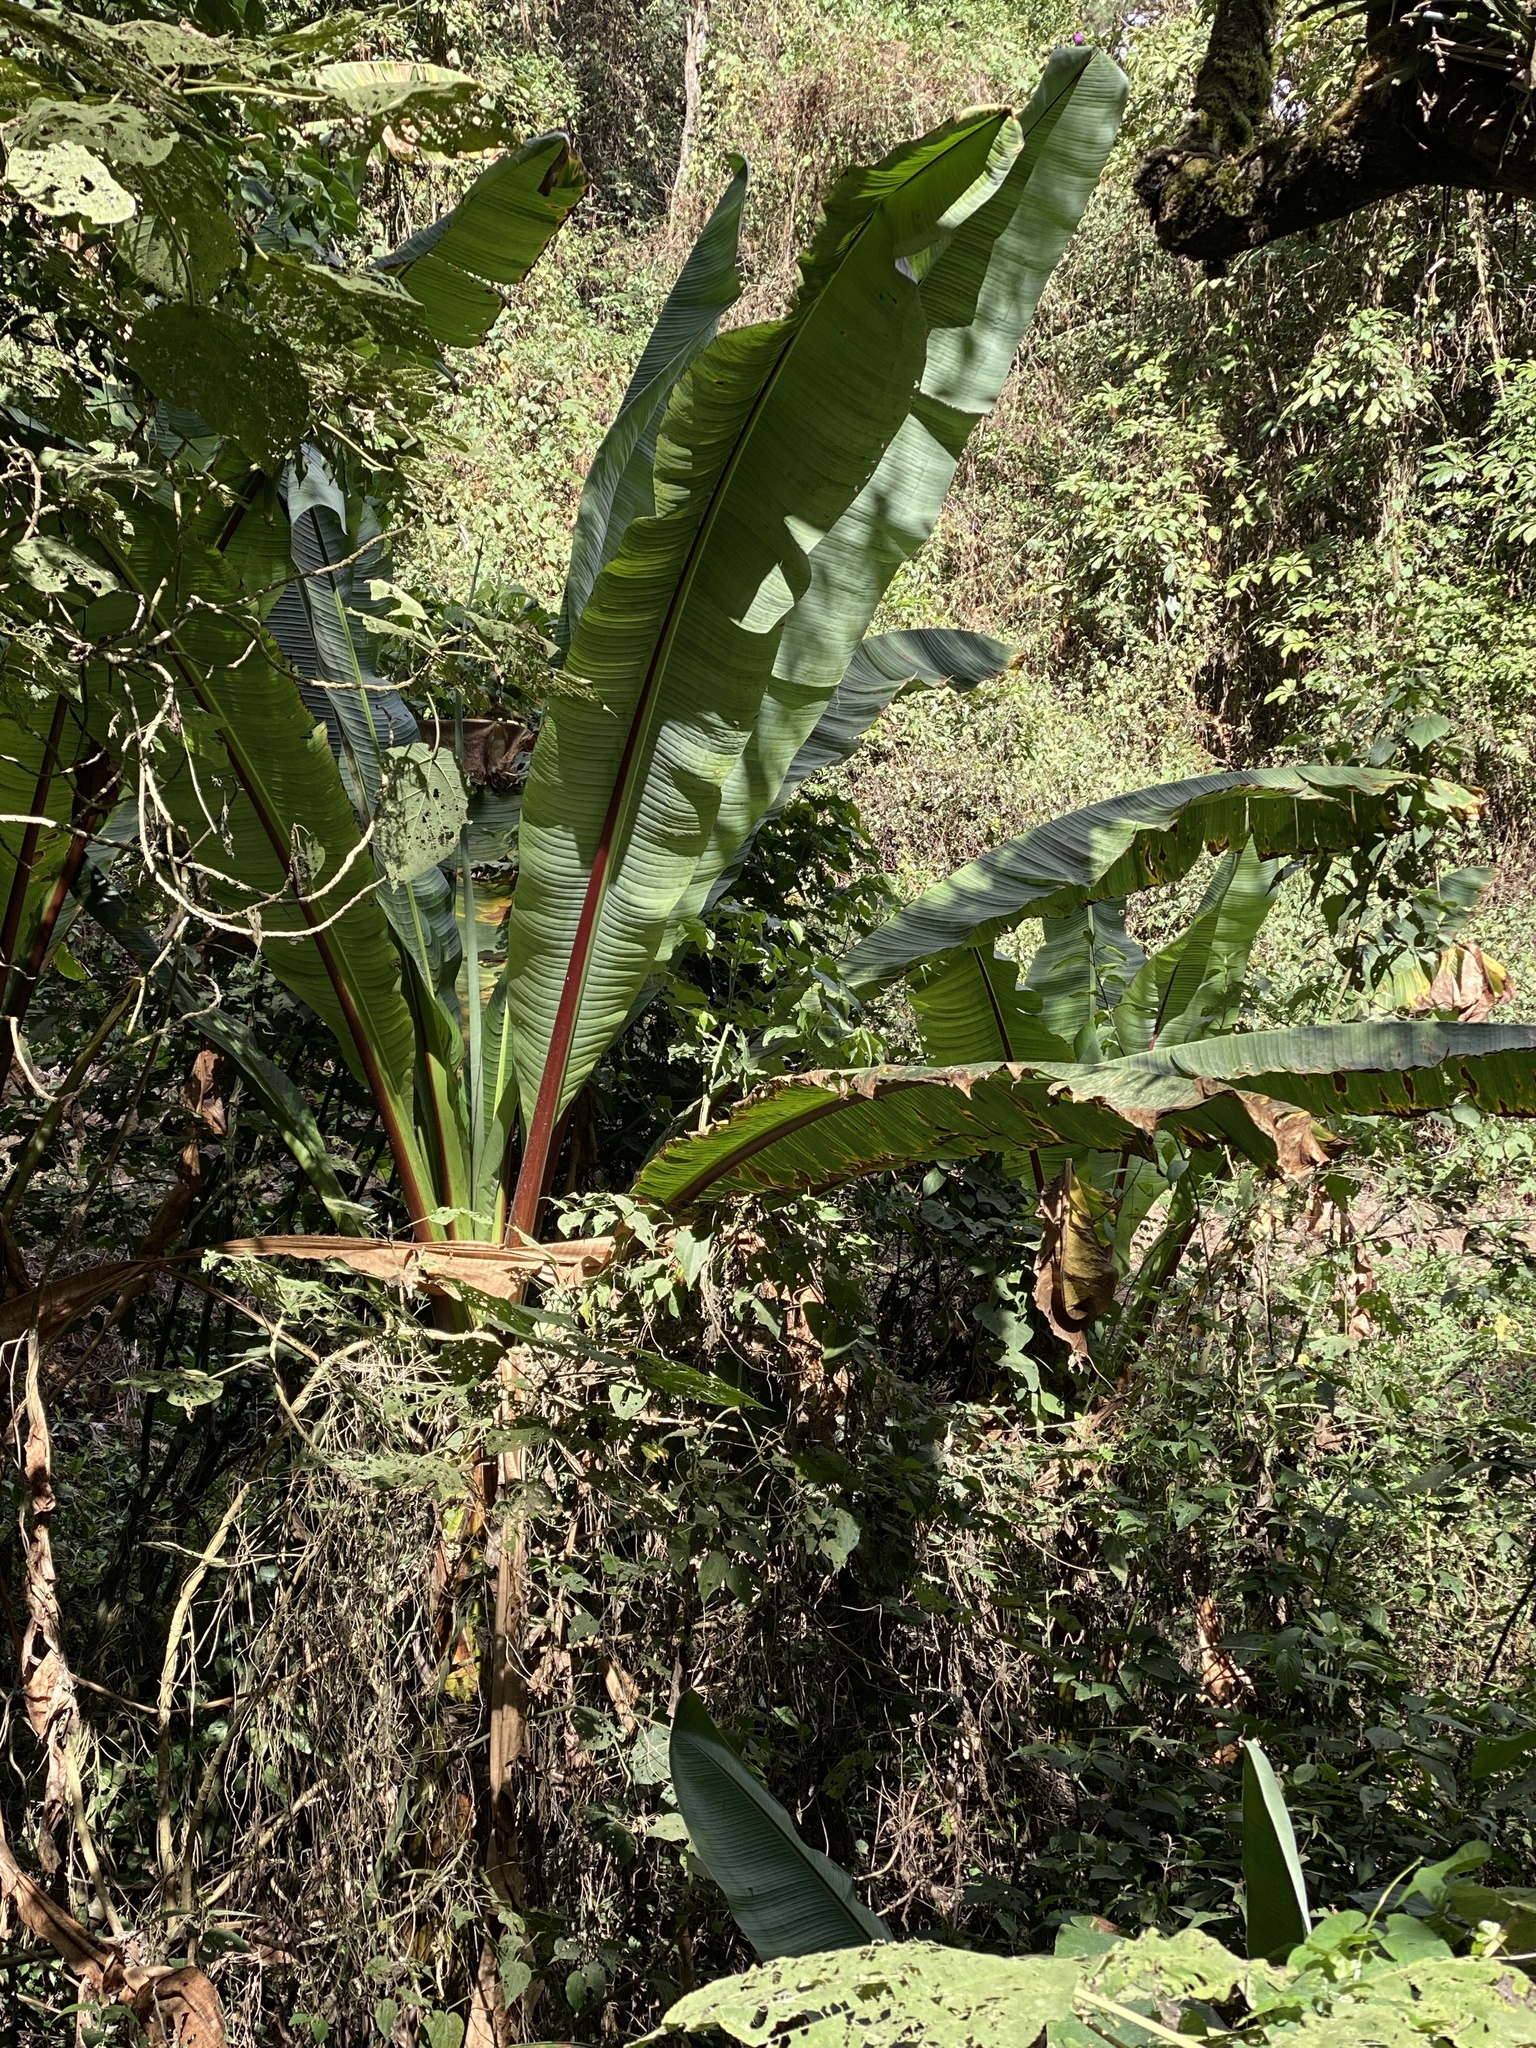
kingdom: Plantae
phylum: Tracheophyta
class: Liliopsida
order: Zingiberales
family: Musaceae
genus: Ensete
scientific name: Ensete ventricosum
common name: Abyssinian banana
